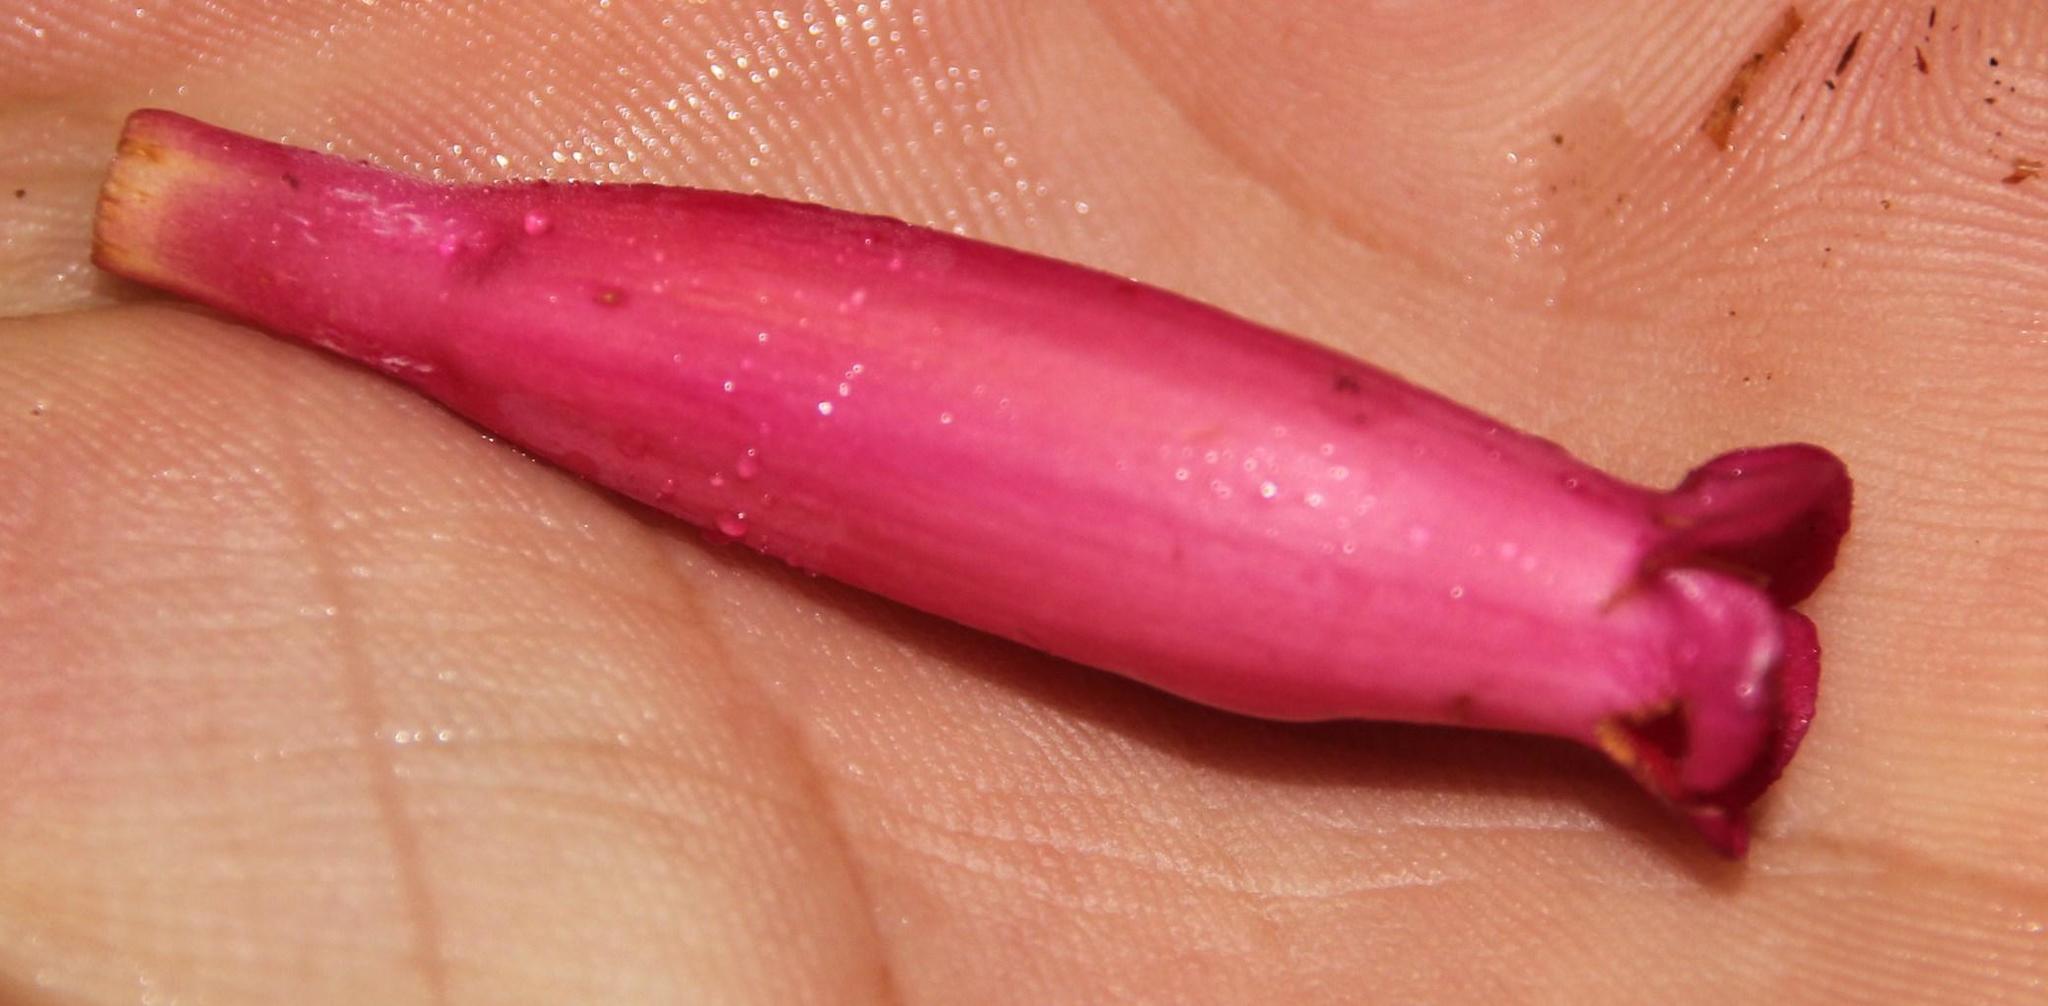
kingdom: Plantae
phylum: Tracheophyta
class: Magnoliopsida
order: Lamiales
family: Bignoniaceae
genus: Campsidium
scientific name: Campsidium valdivianum
